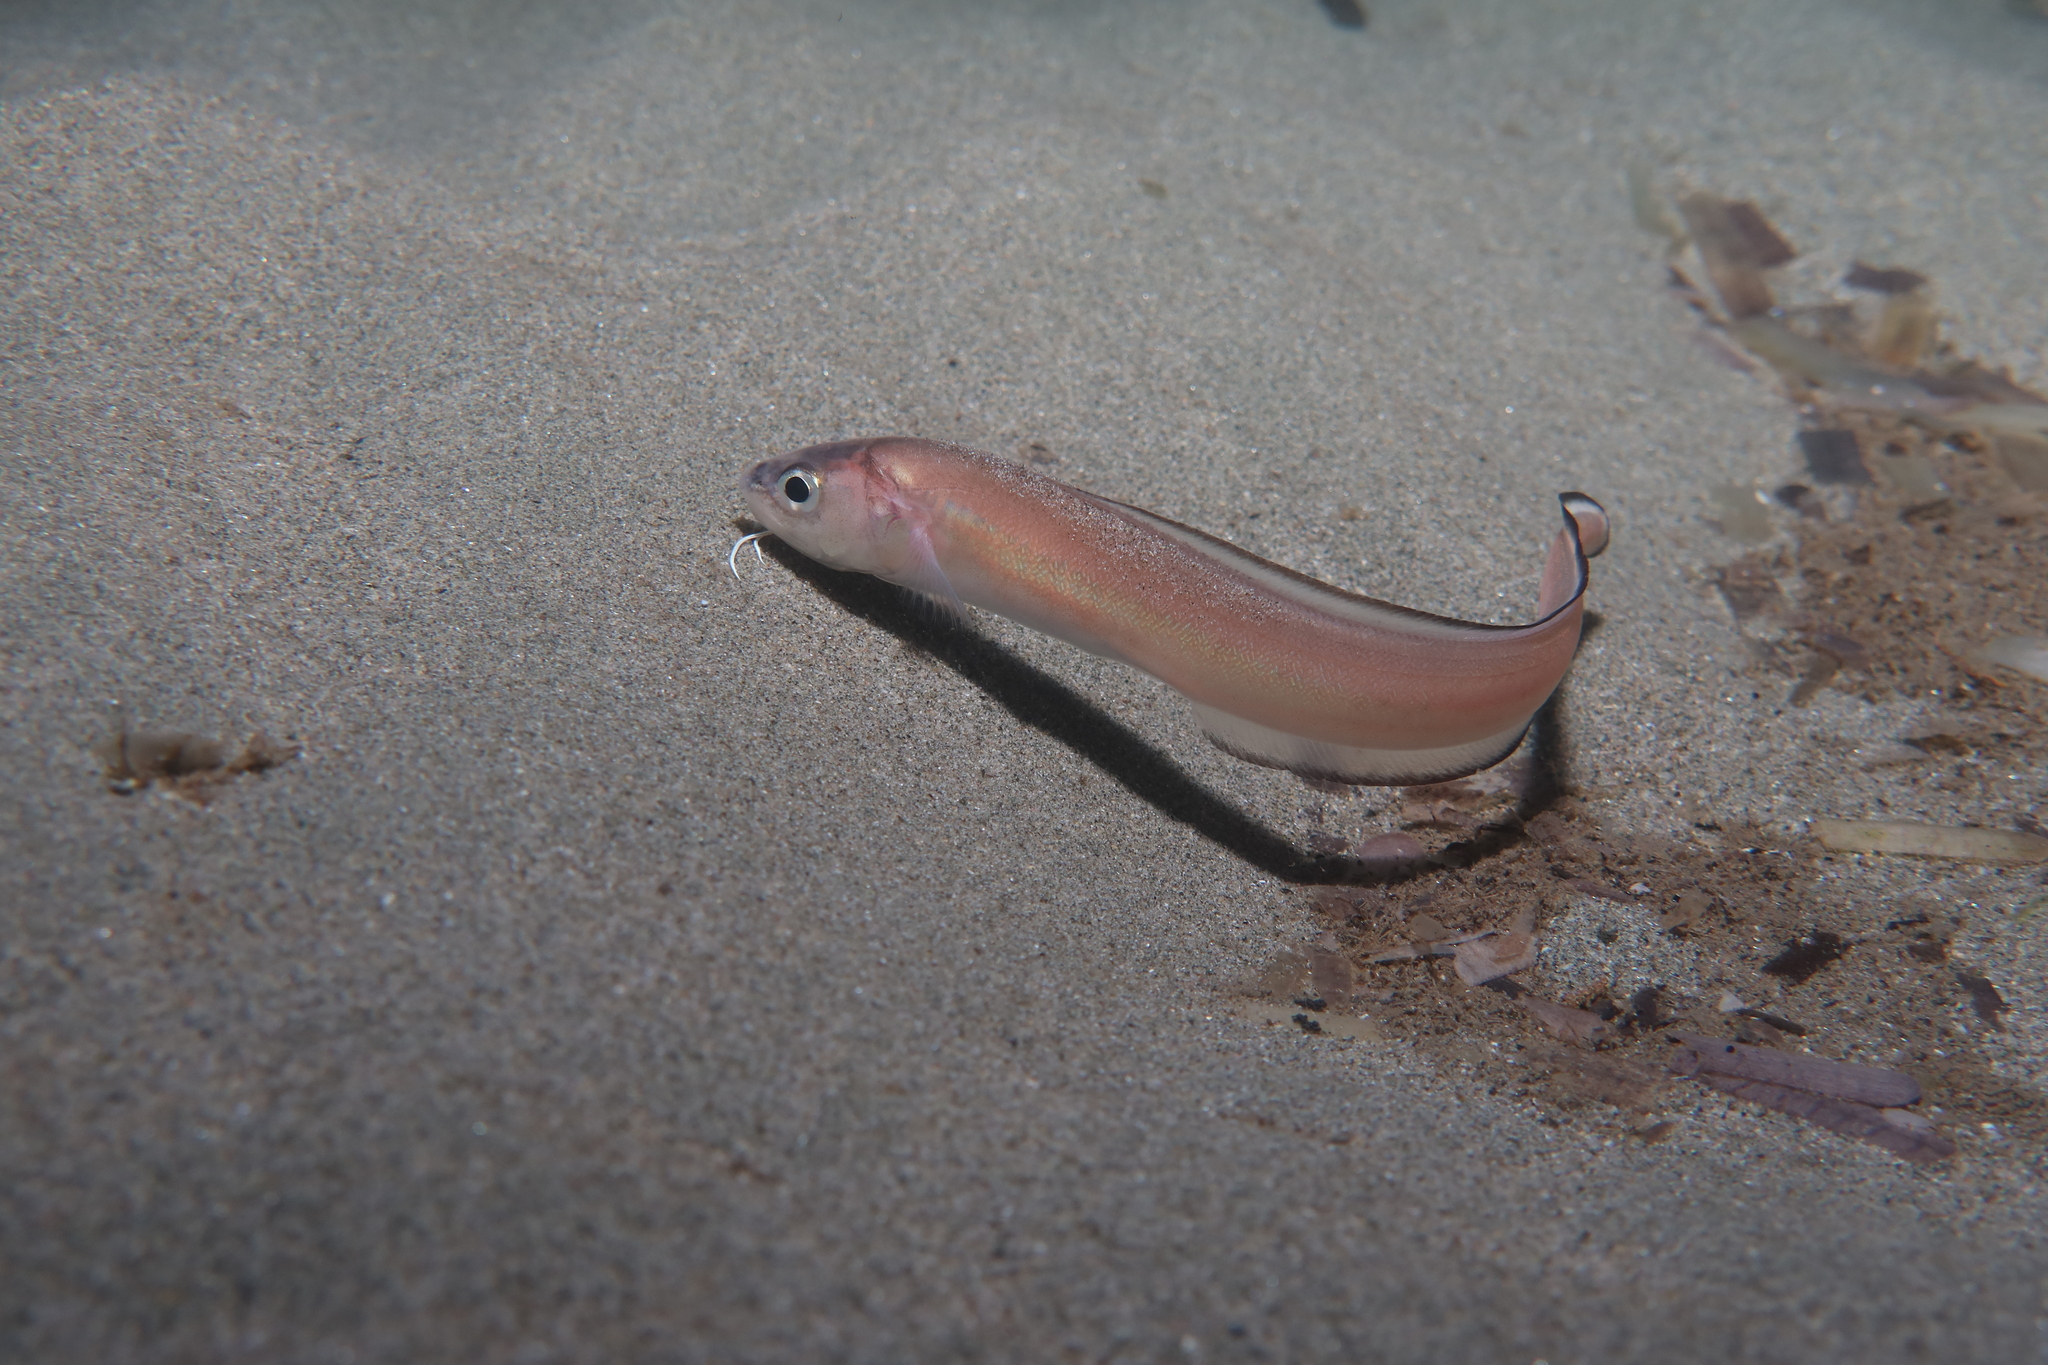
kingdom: Animalia
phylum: Chordata
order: Ophidiiformes
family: Ophidiidae
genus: Ophidion
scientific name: Ophidion rochei
